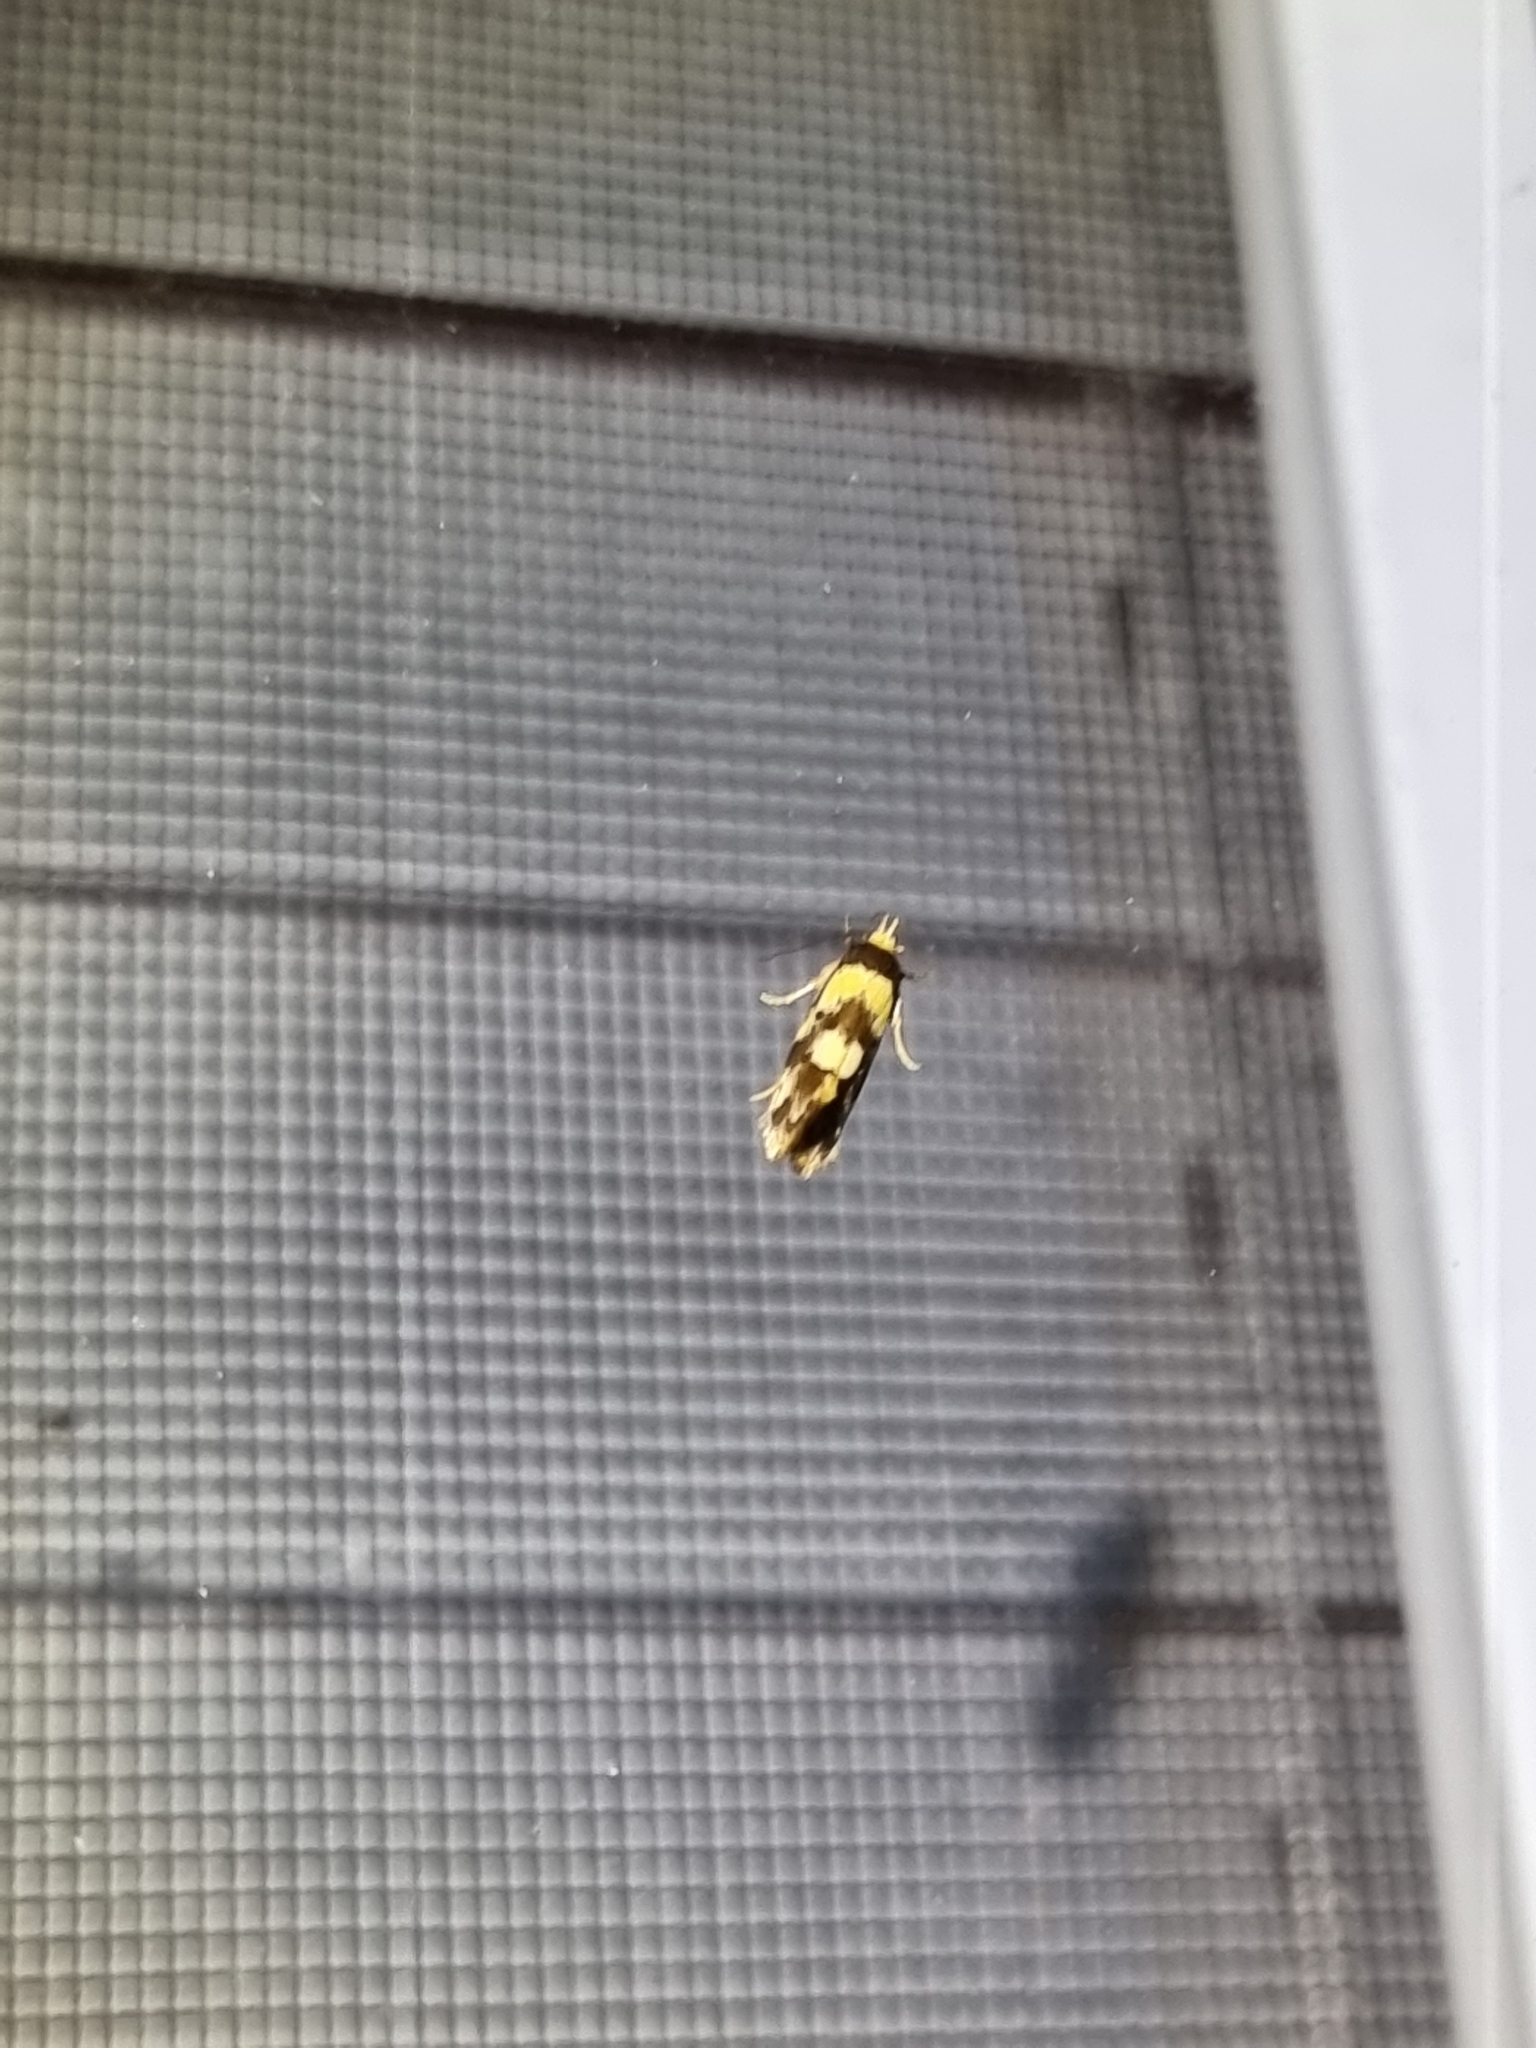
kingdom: Animalia
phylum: Arthropoda
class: Insecta
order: Lepidoptera
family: Oecophoridae
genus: Eulechria
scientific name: Eulechria marmorata
